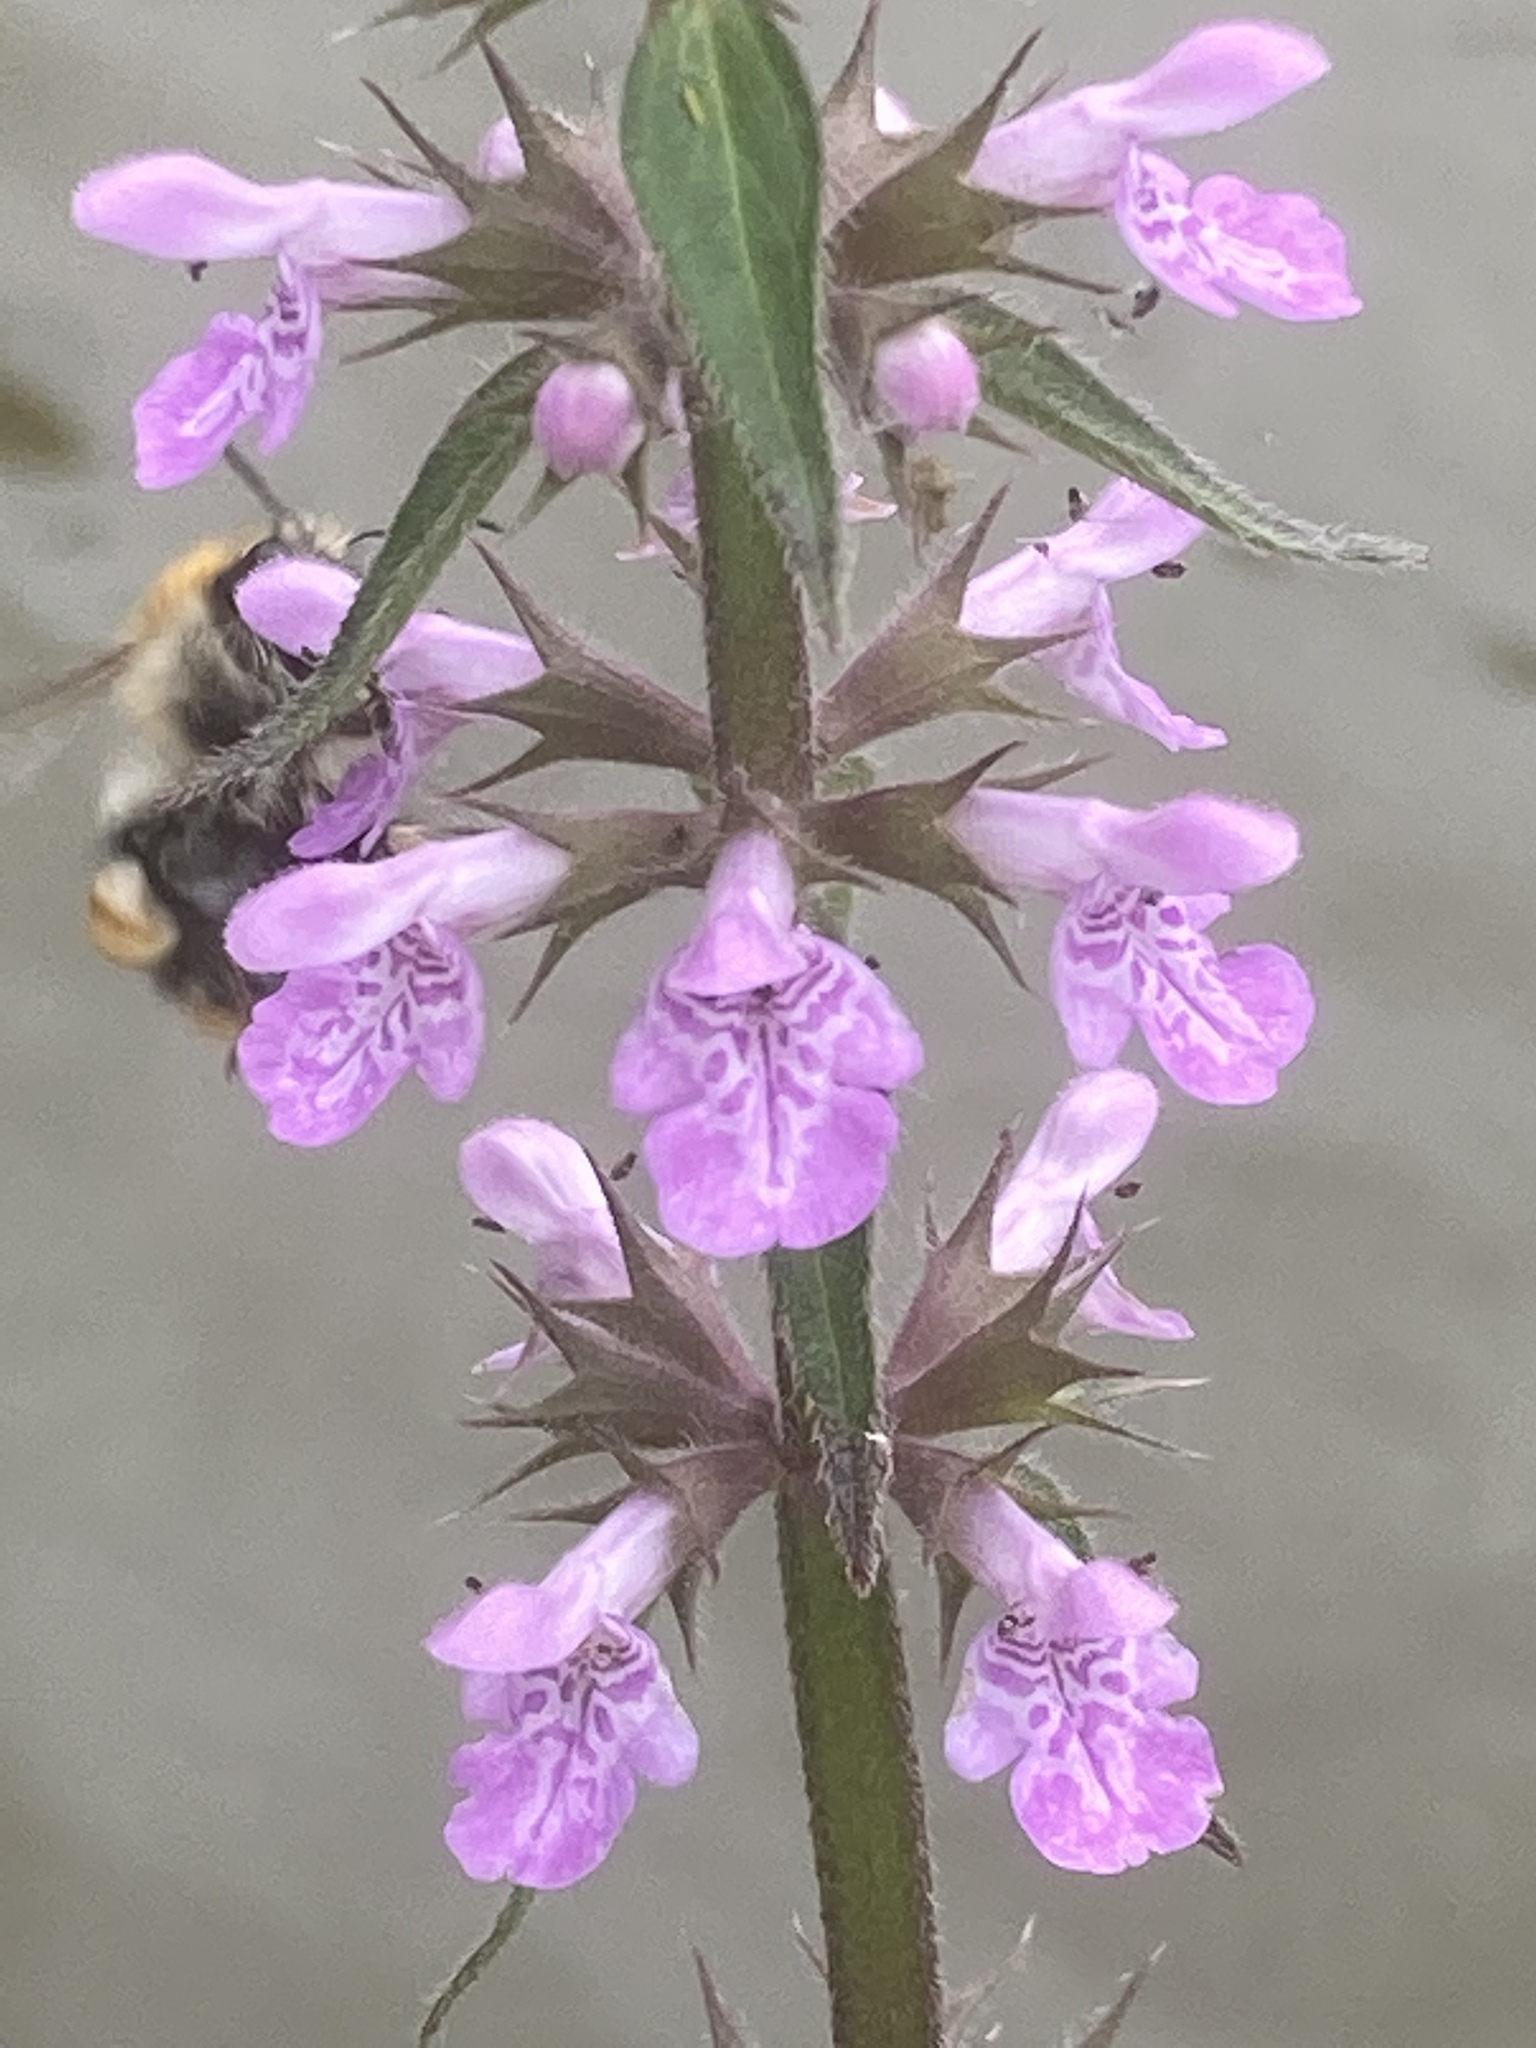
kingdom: Animalia
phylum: Arthropoda
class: Insecta
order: Hymenoptera
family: Apidae
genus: Bombus
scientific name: Bombus pascuorum
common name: Common carder bee
